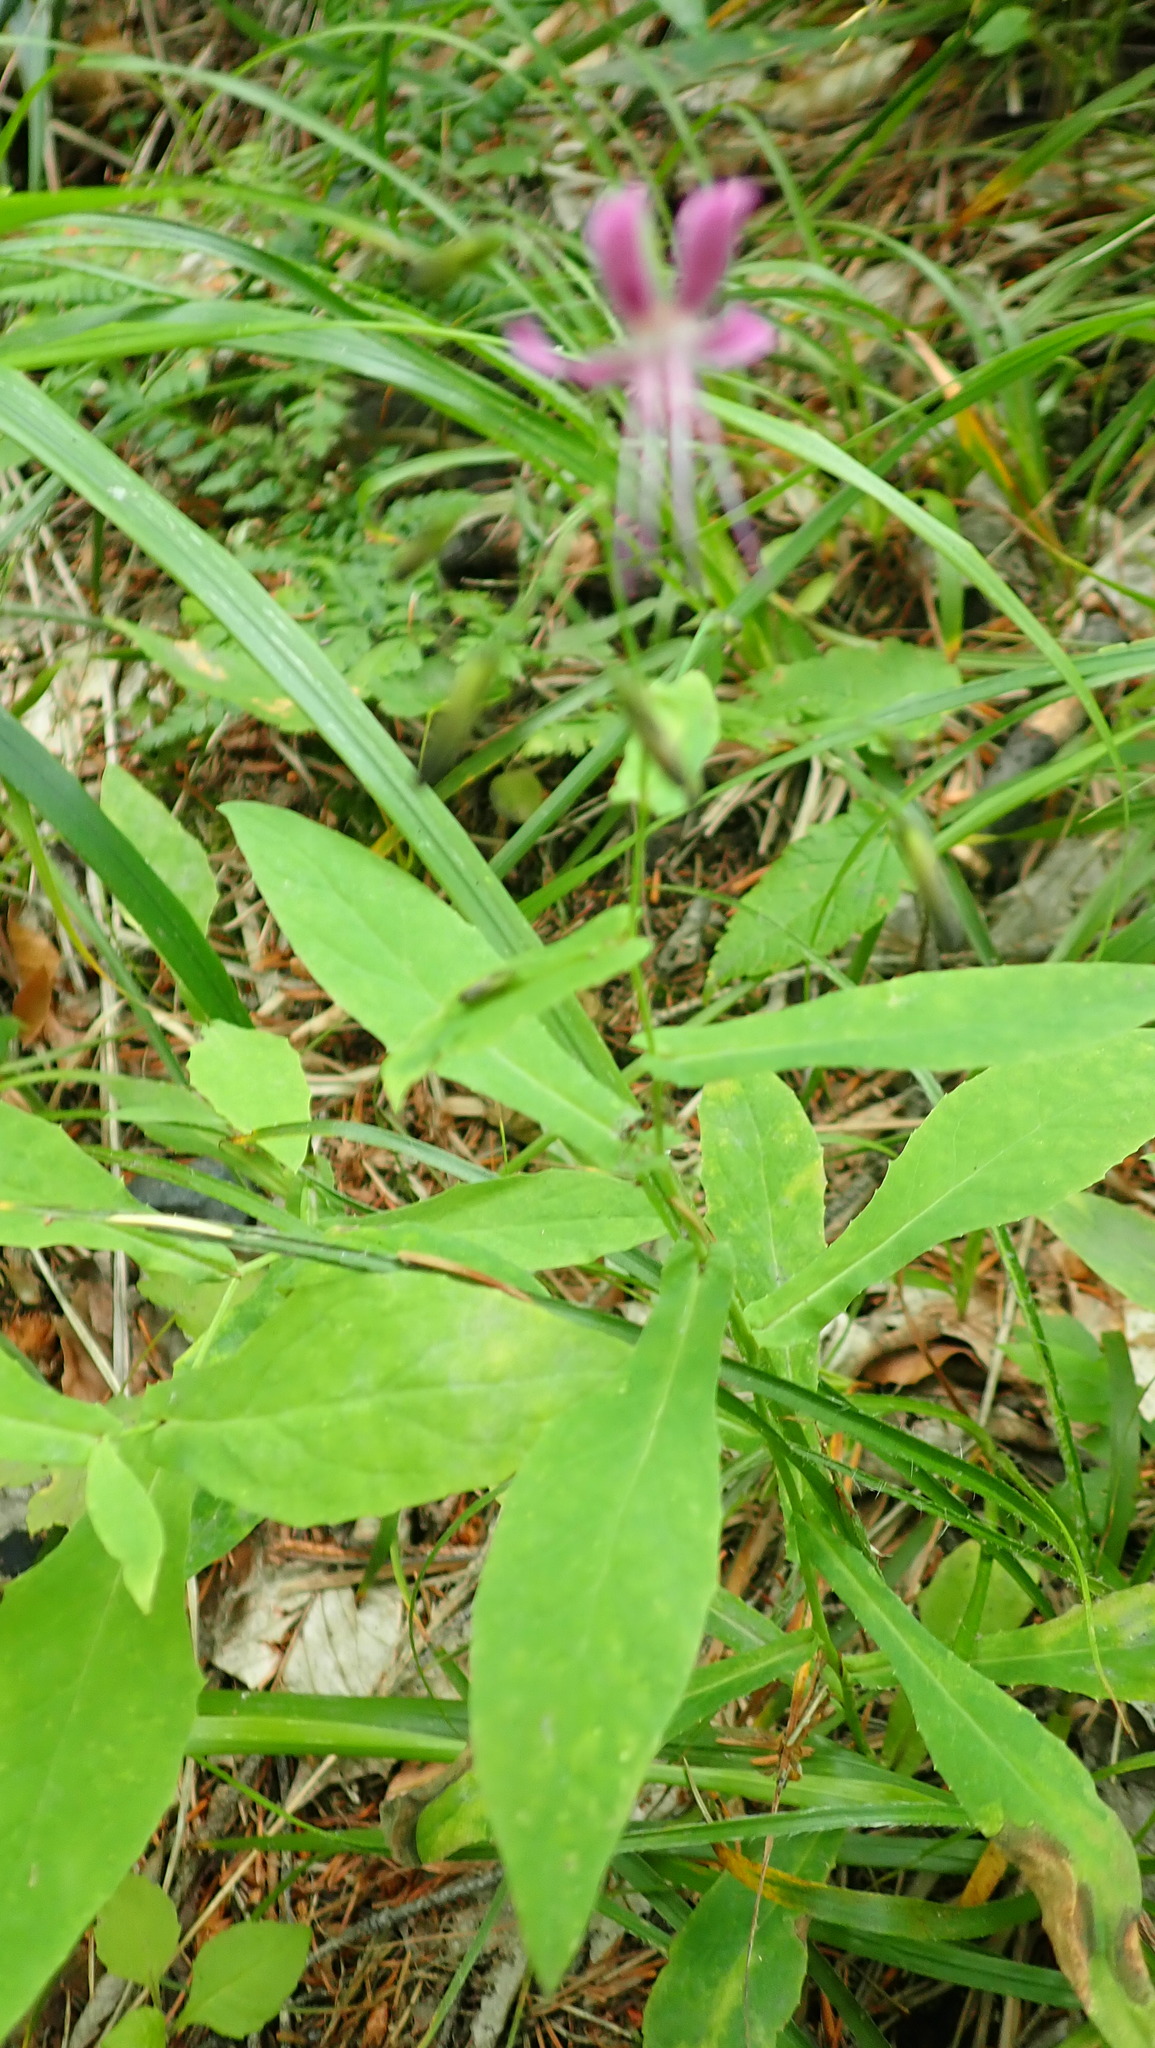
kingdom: Plantae
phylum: Tracheophyta
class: Magnoliopsida
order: Asterales
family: Asteraceae
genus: Prenanthes
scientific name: Prenanthes purpurea
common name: Purple lettuce
